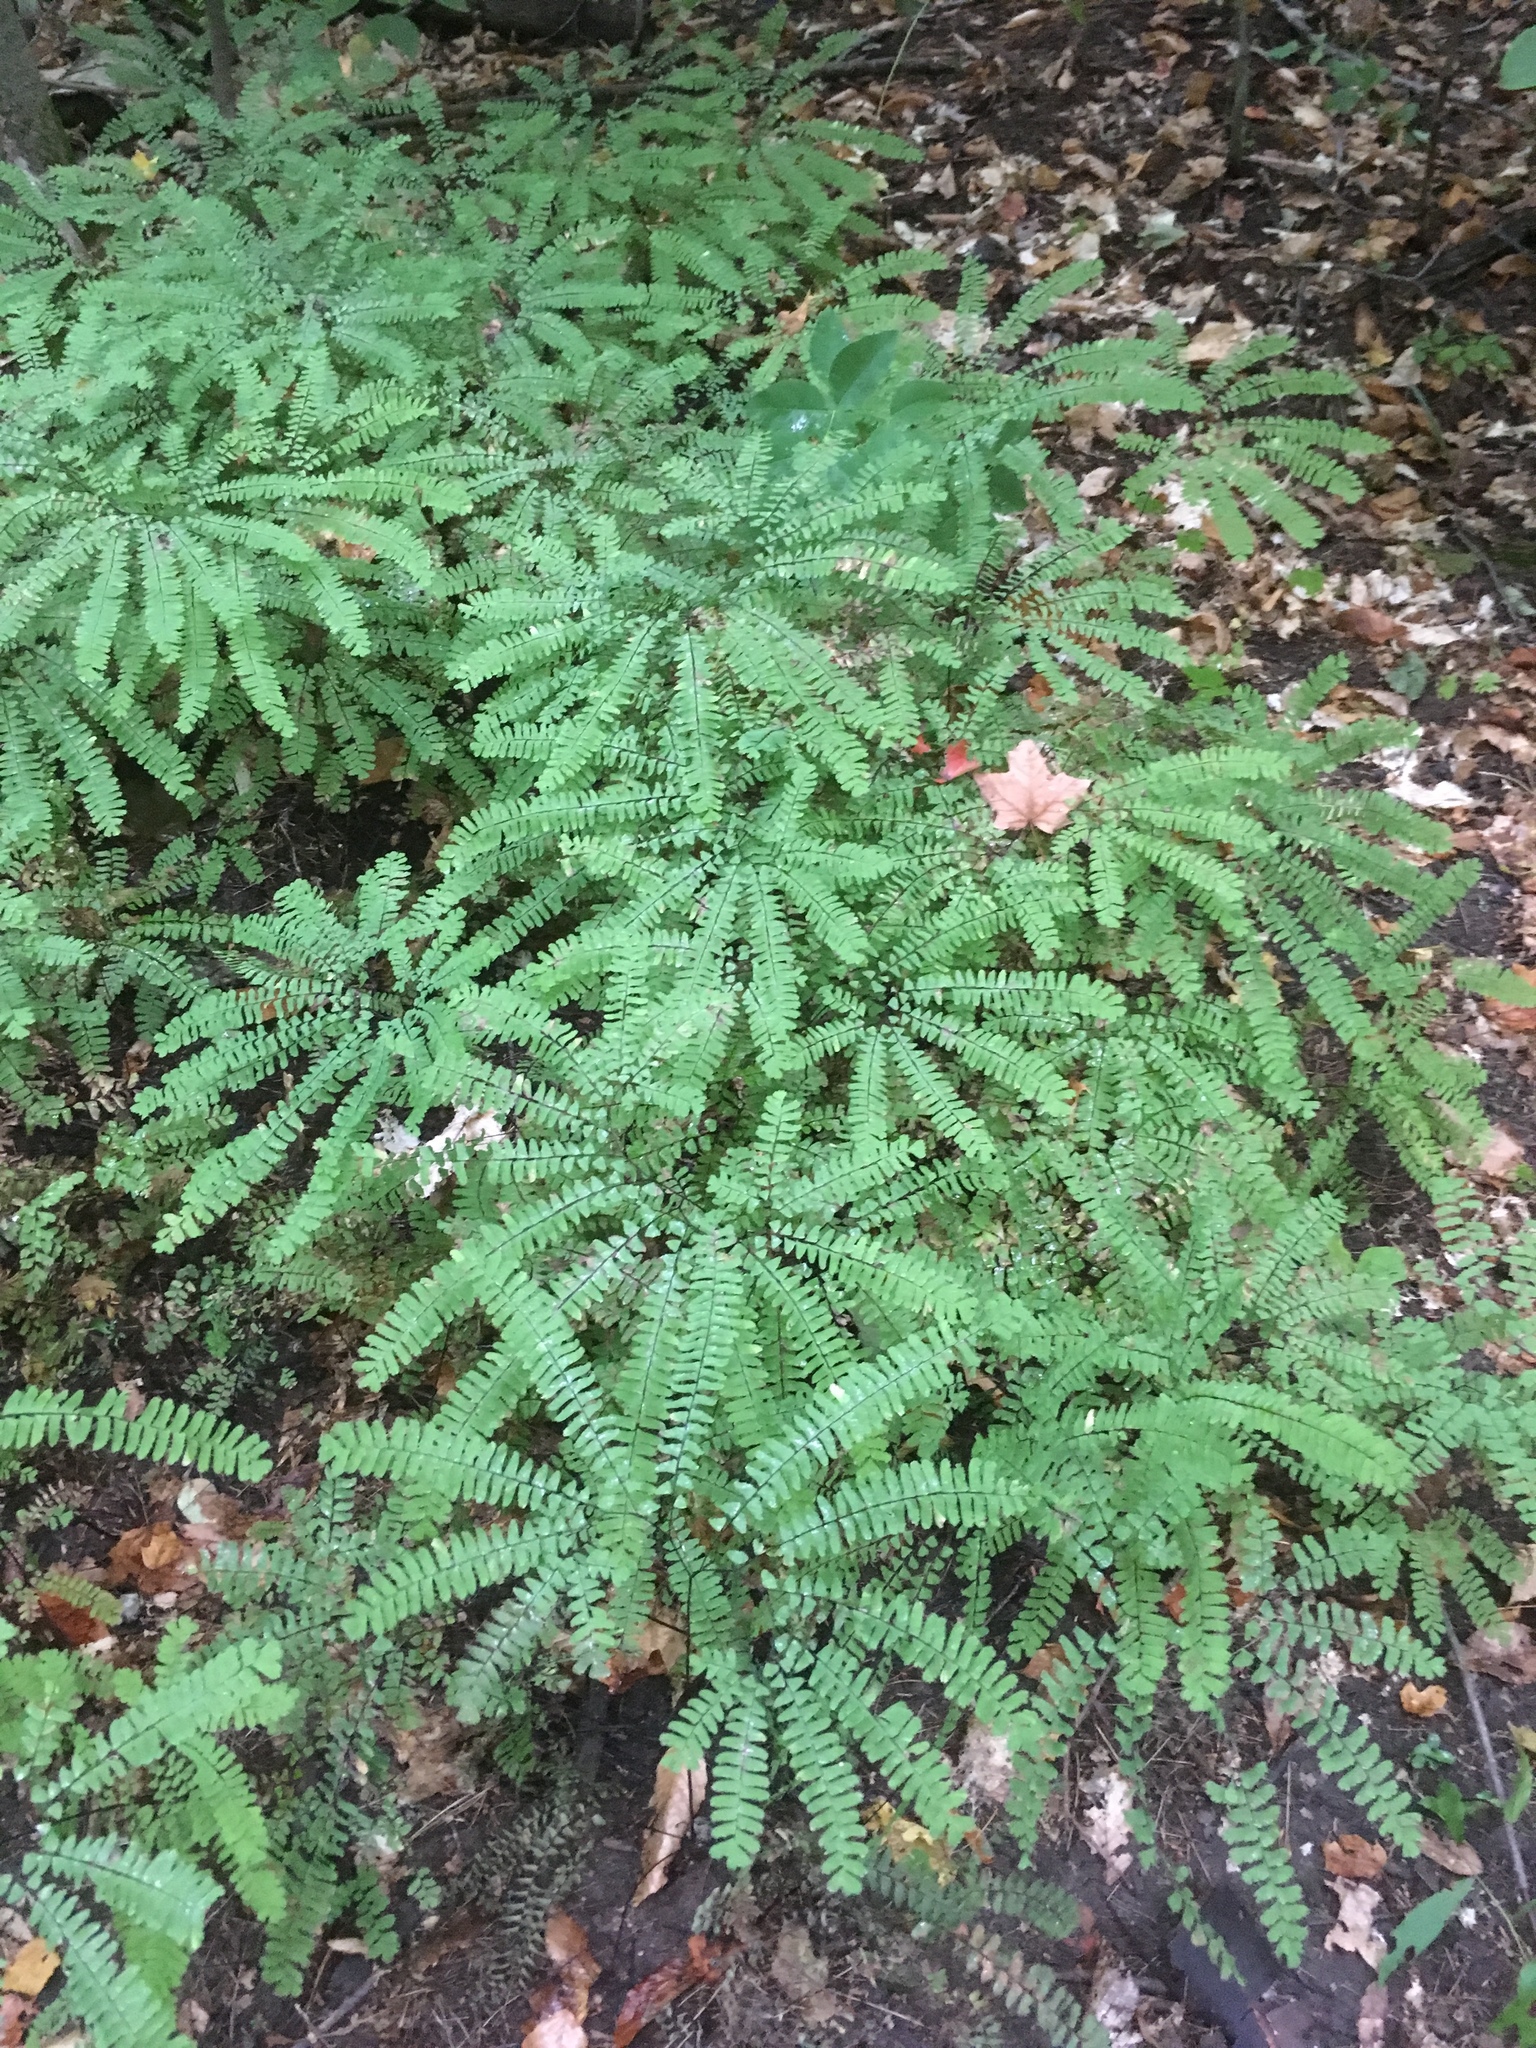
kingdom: Plantae
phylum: Tracheophyta
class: Polypodiopsida
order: Polypodiales
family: Pteridaceae
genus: Adiantum
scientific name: Adiantum pedatum
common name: Five-finger fern
